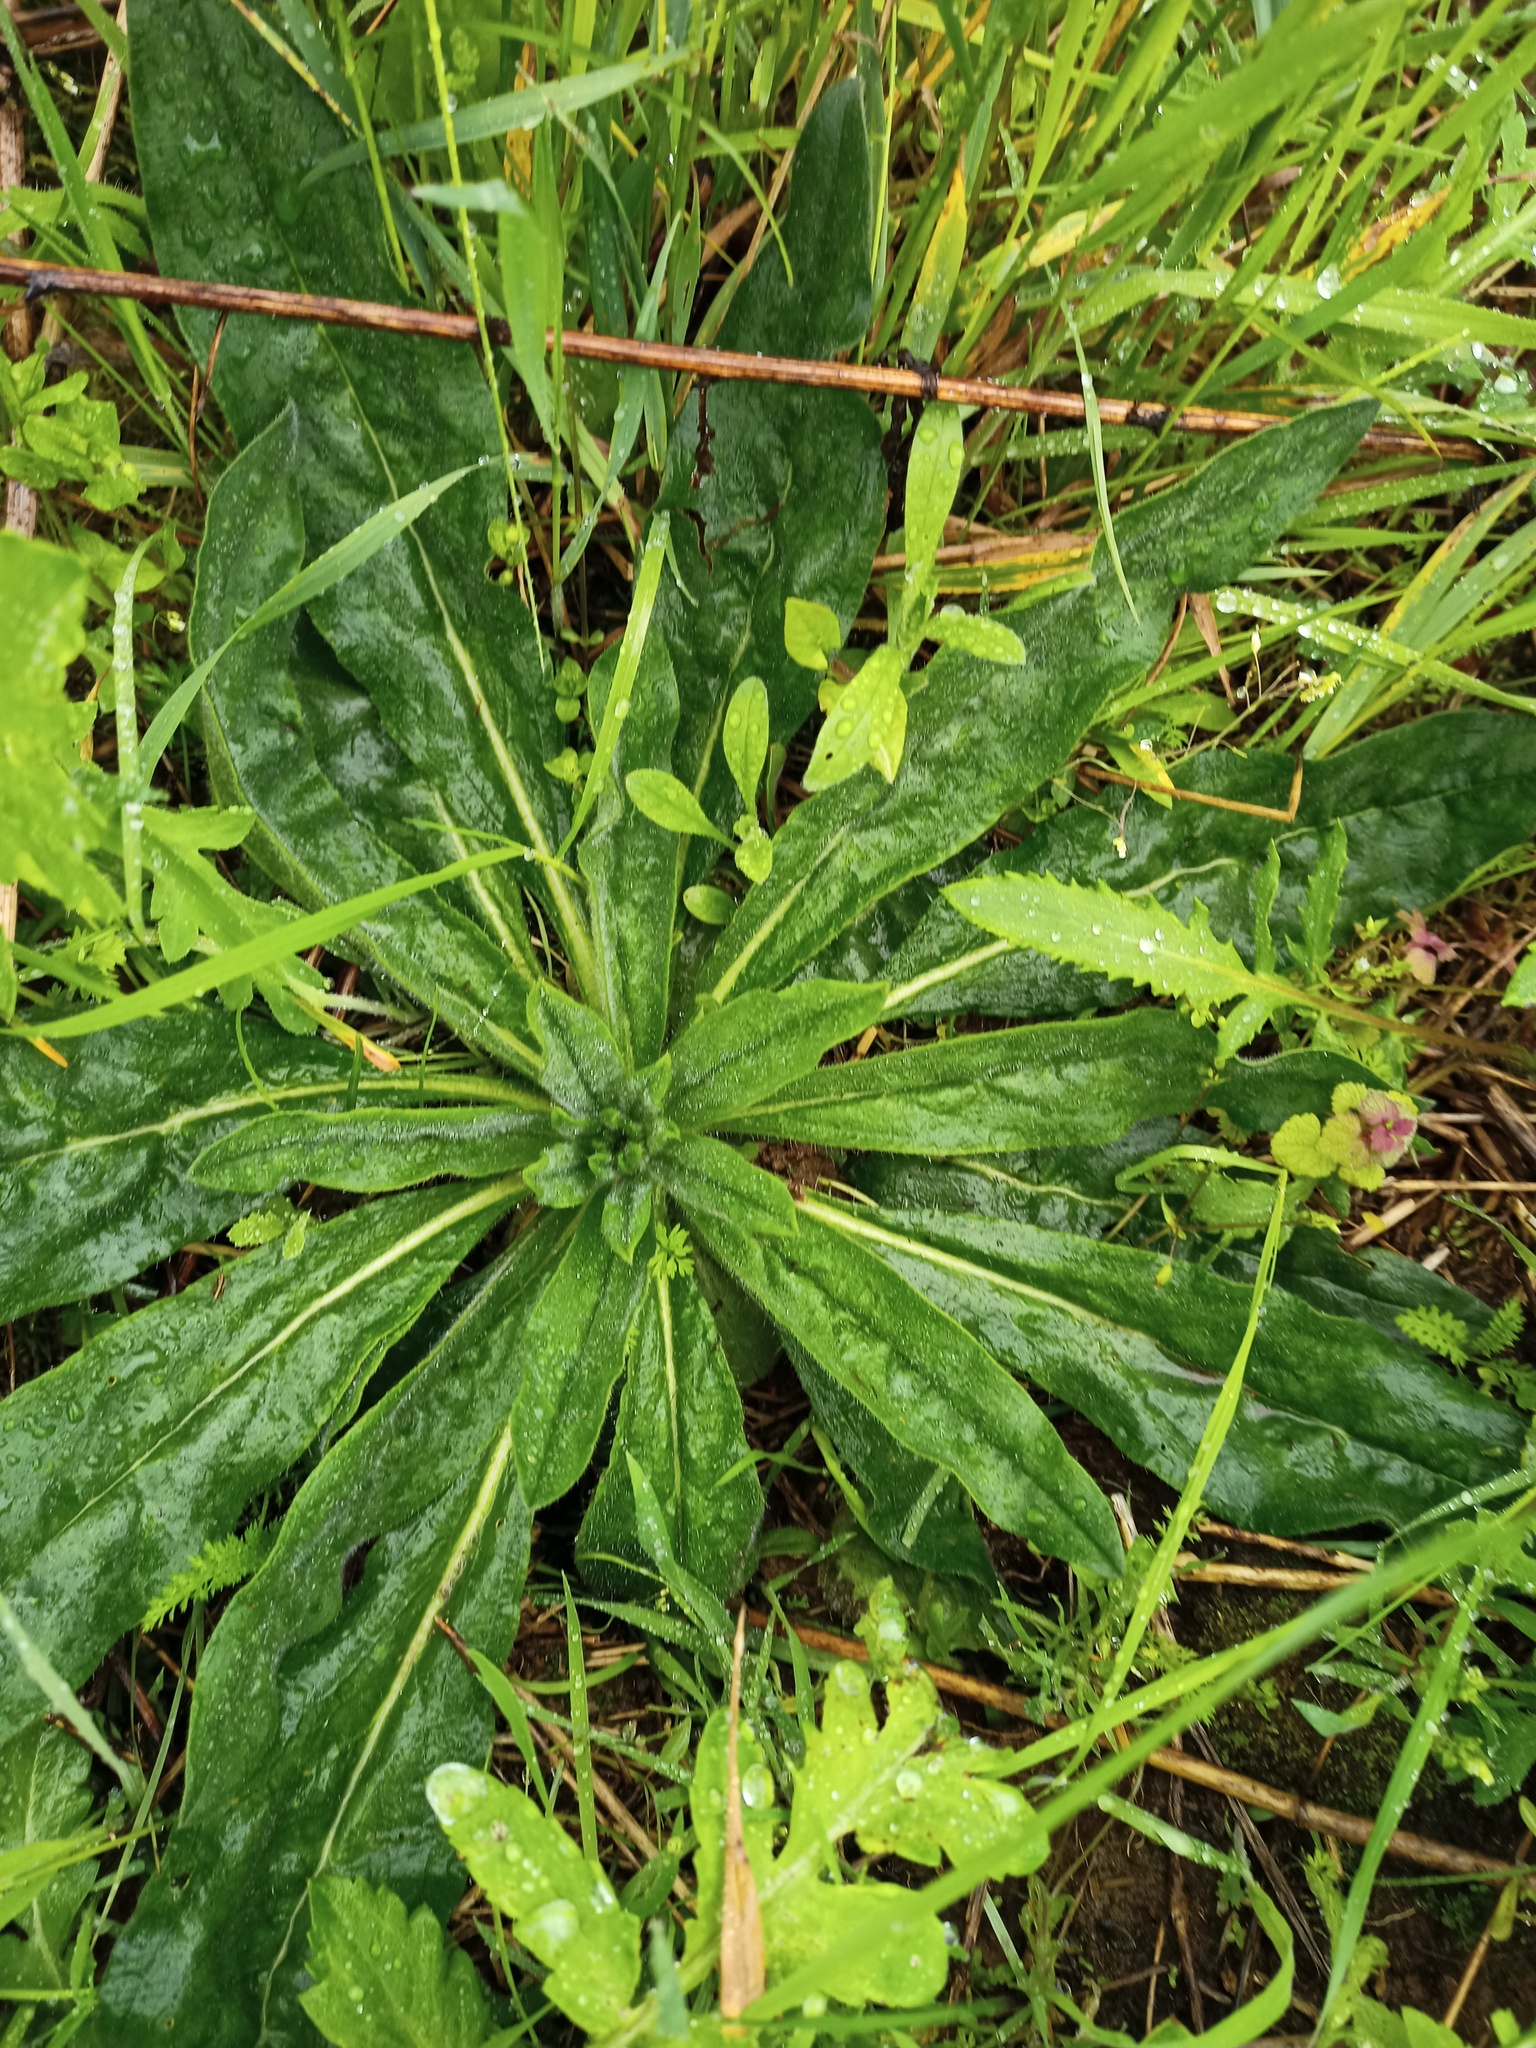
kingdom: Plantae
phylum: Tracheophyta
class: Magnoliopsida
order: Boraginales
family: Boraginaceae
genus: Echium
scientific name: Echium vulgare
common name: Common viper's bugloss
